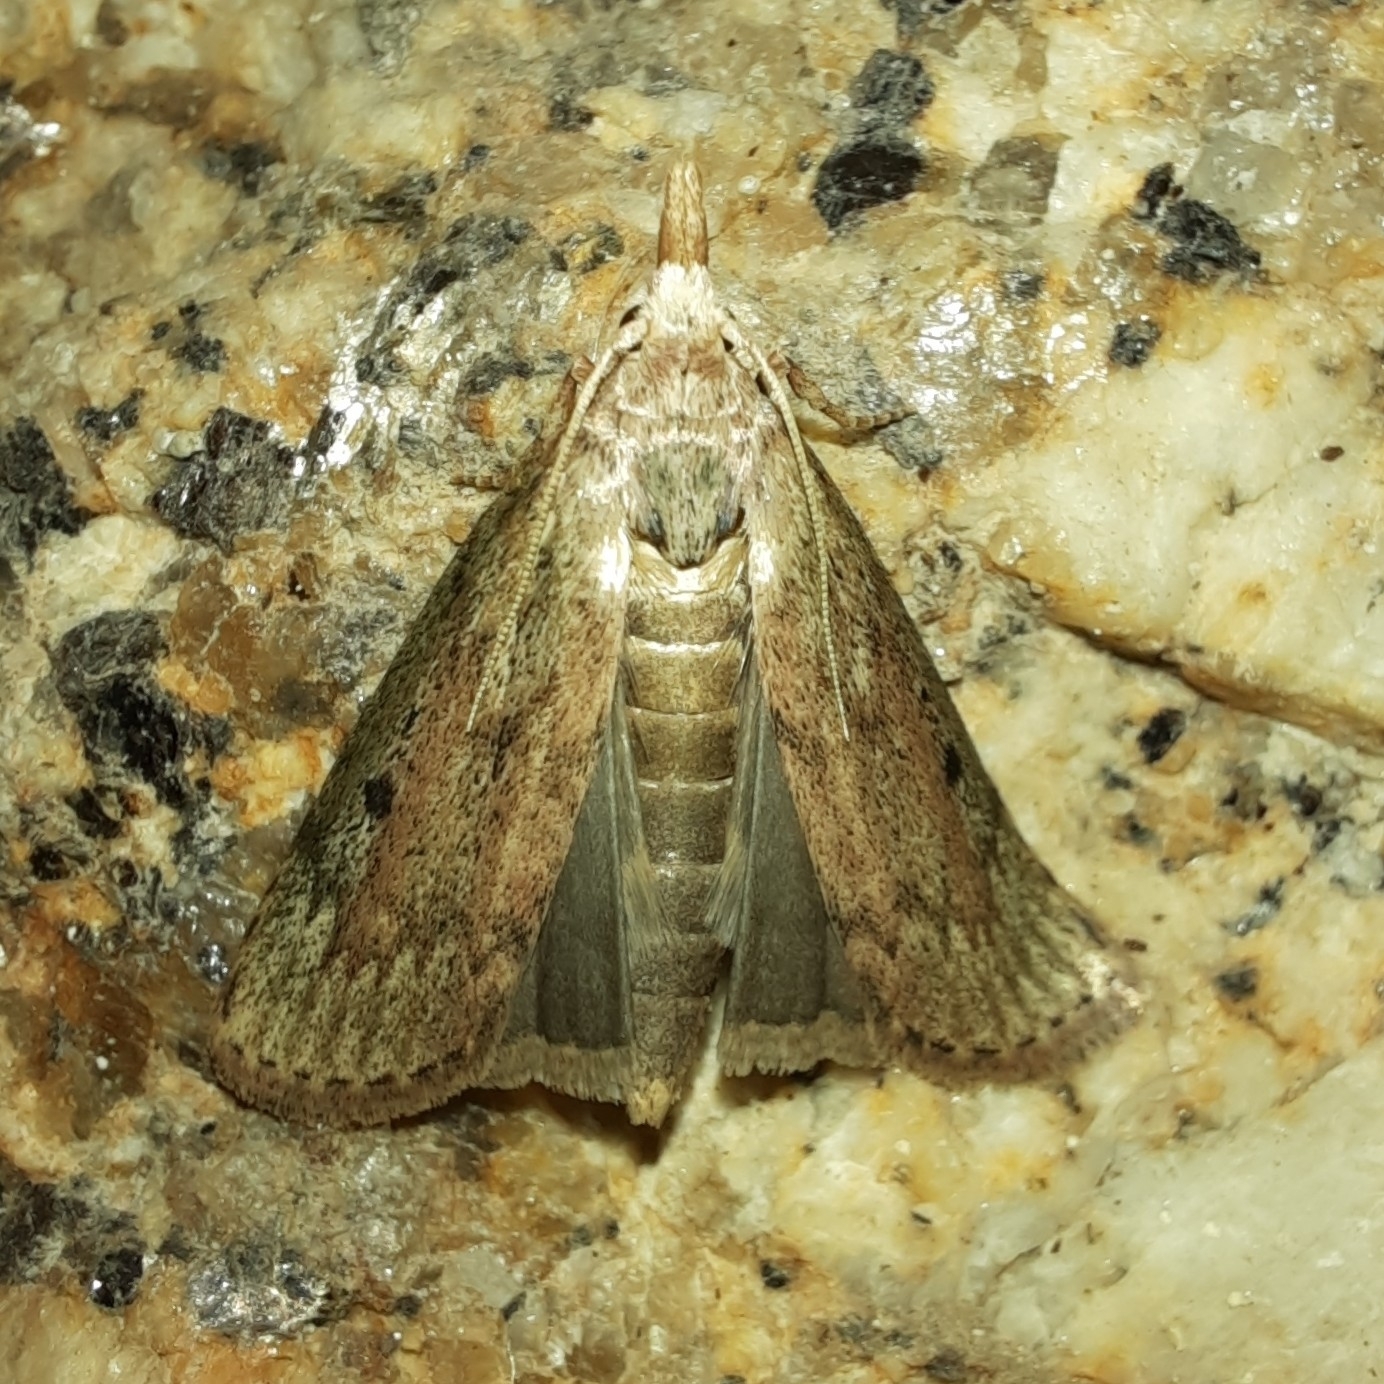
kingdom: Animalia
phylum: Arthropoda
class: Insecta
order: Lepidoptera
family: Pyralidae
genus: Aphomia
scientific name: Aphomia sociella
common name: Bee moth
